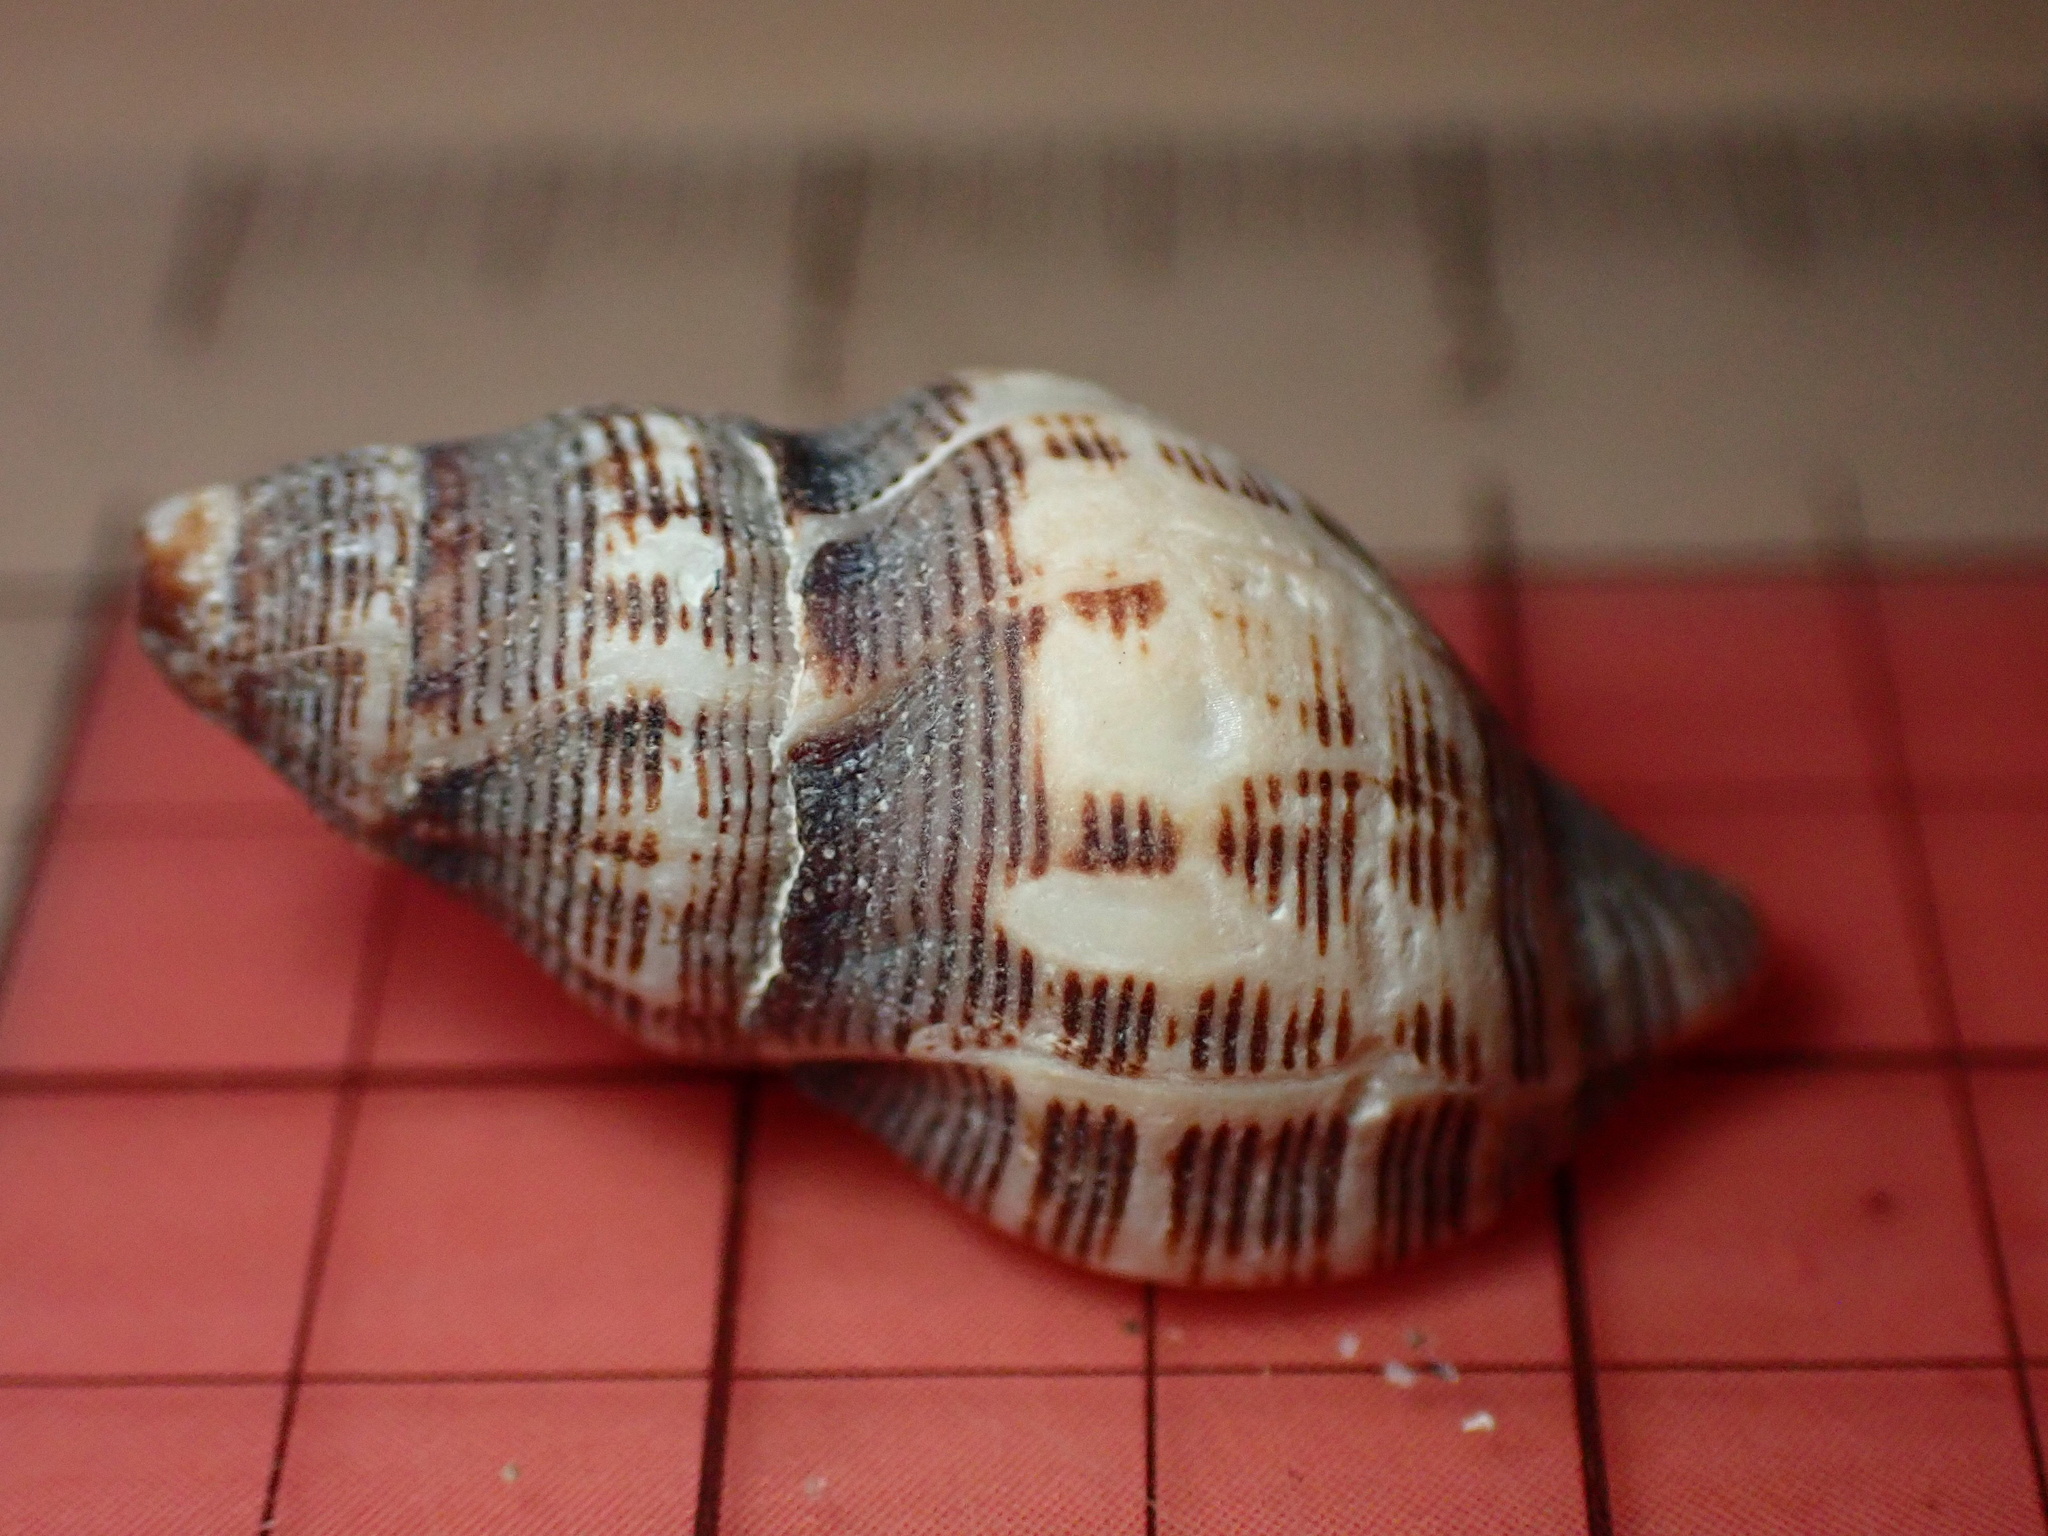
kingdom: Animalia
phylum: Mollusca
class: Gastropoda
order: Neogastropoda
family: Muricidae
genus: Roperia
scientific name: Roperia poulsoni
